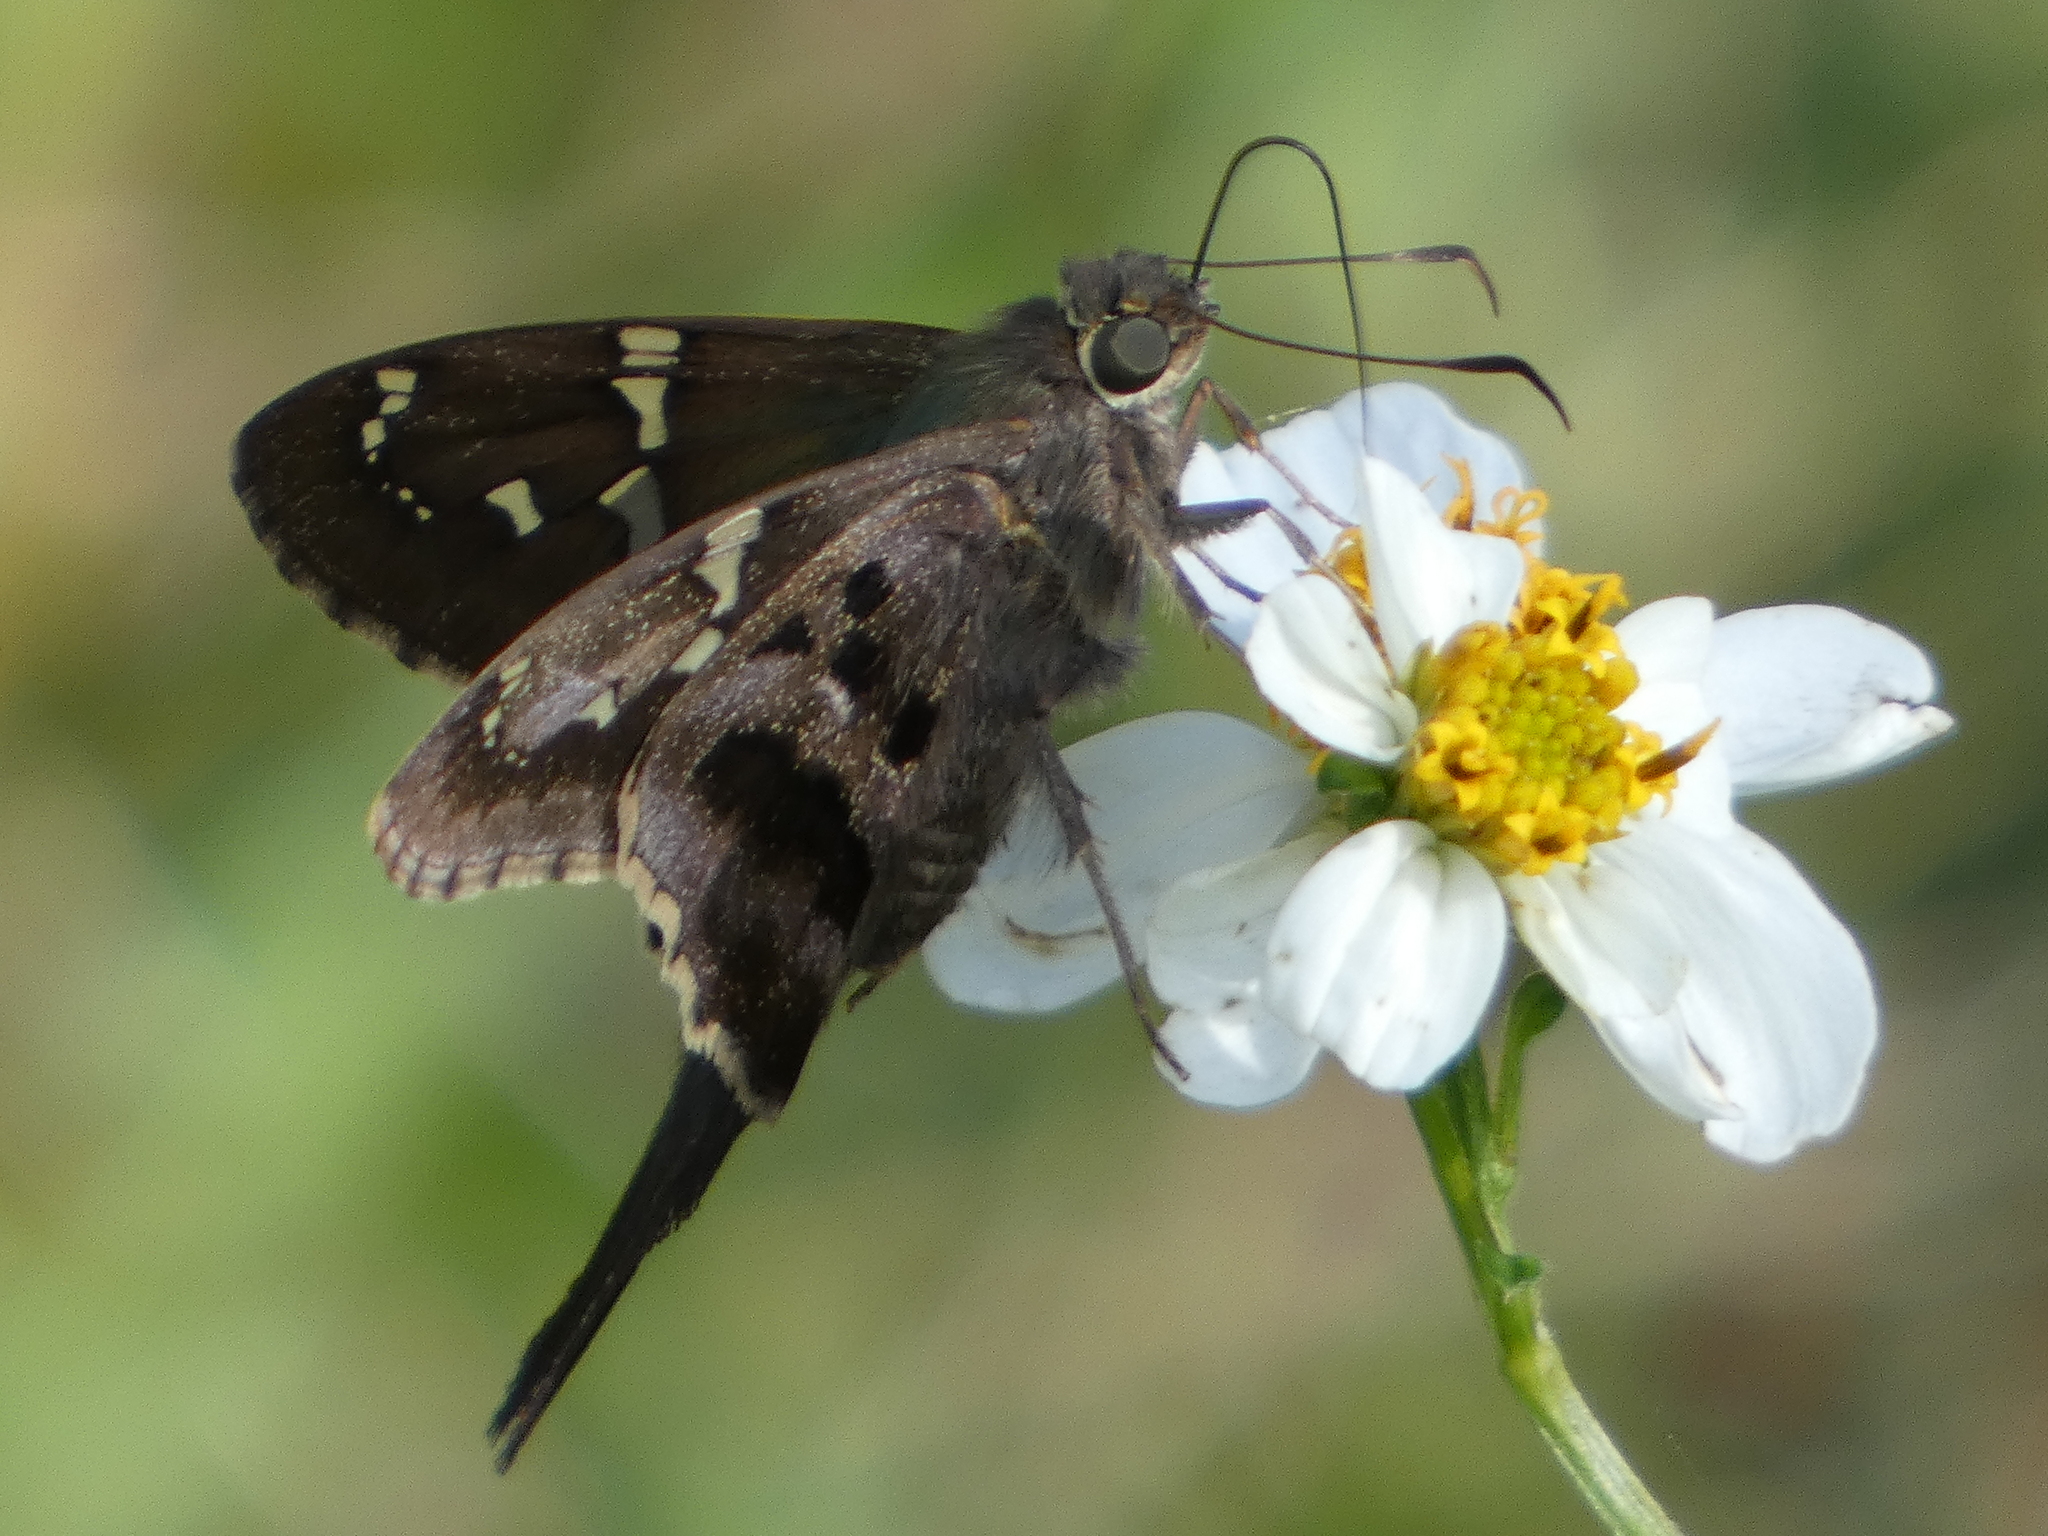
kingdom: Animalia
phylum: Arthropoda
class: Insecta
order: Lepidoptera
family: Hesperiidae
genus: Urbanus
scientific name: Urbanus proteus
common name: Long-tailed skipper
